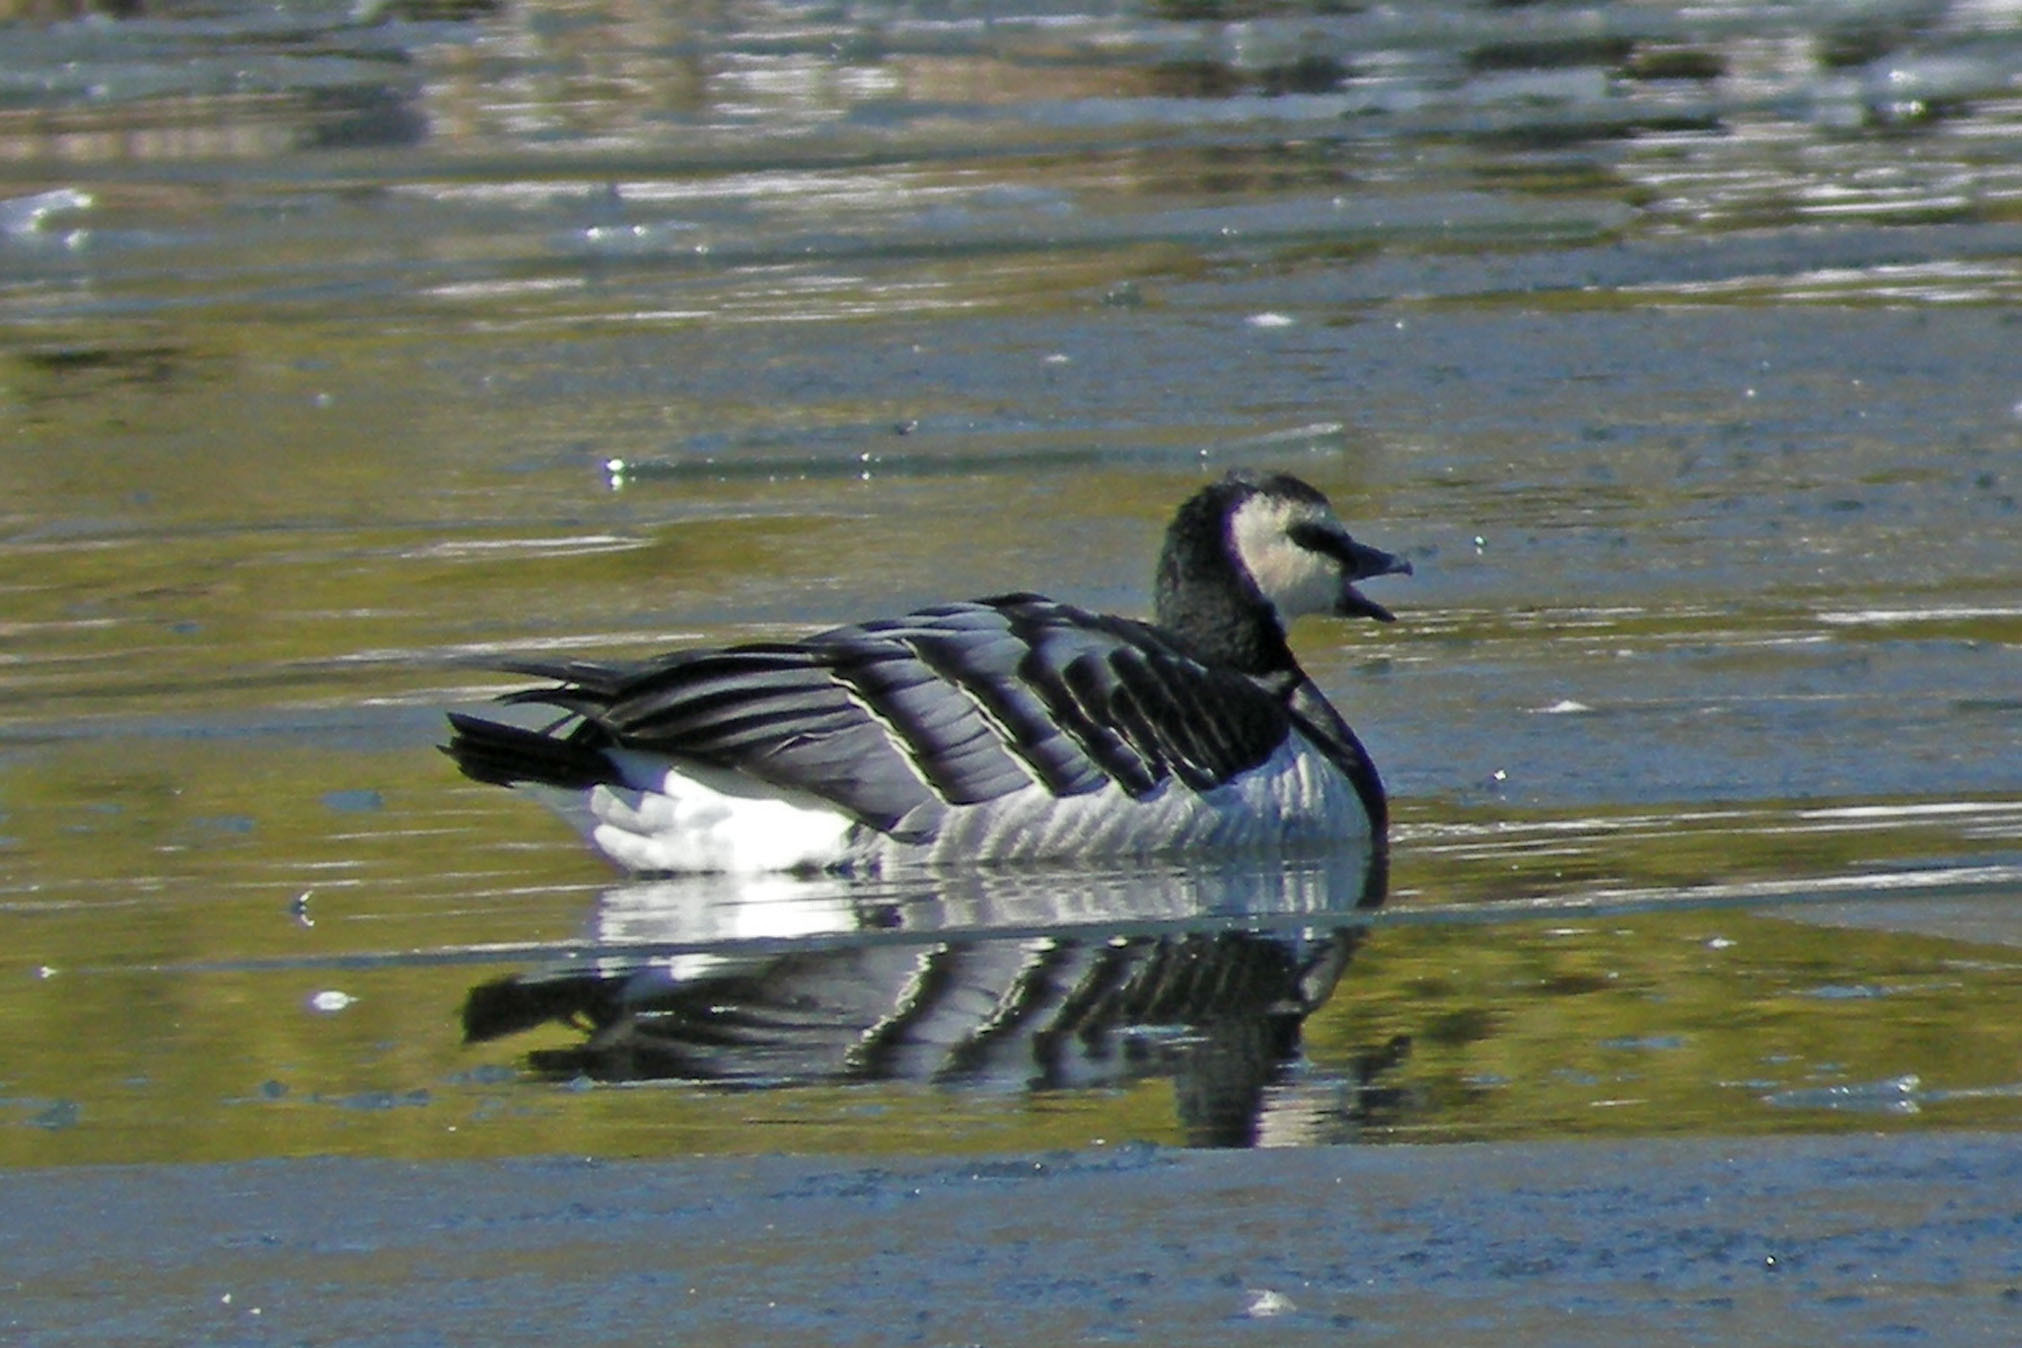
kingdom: Animalia
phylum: Chordata
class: Aves
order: Anseriformes
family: Anatidae
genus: Branta
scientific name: Branta leucopsis
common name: Barnacle goose
